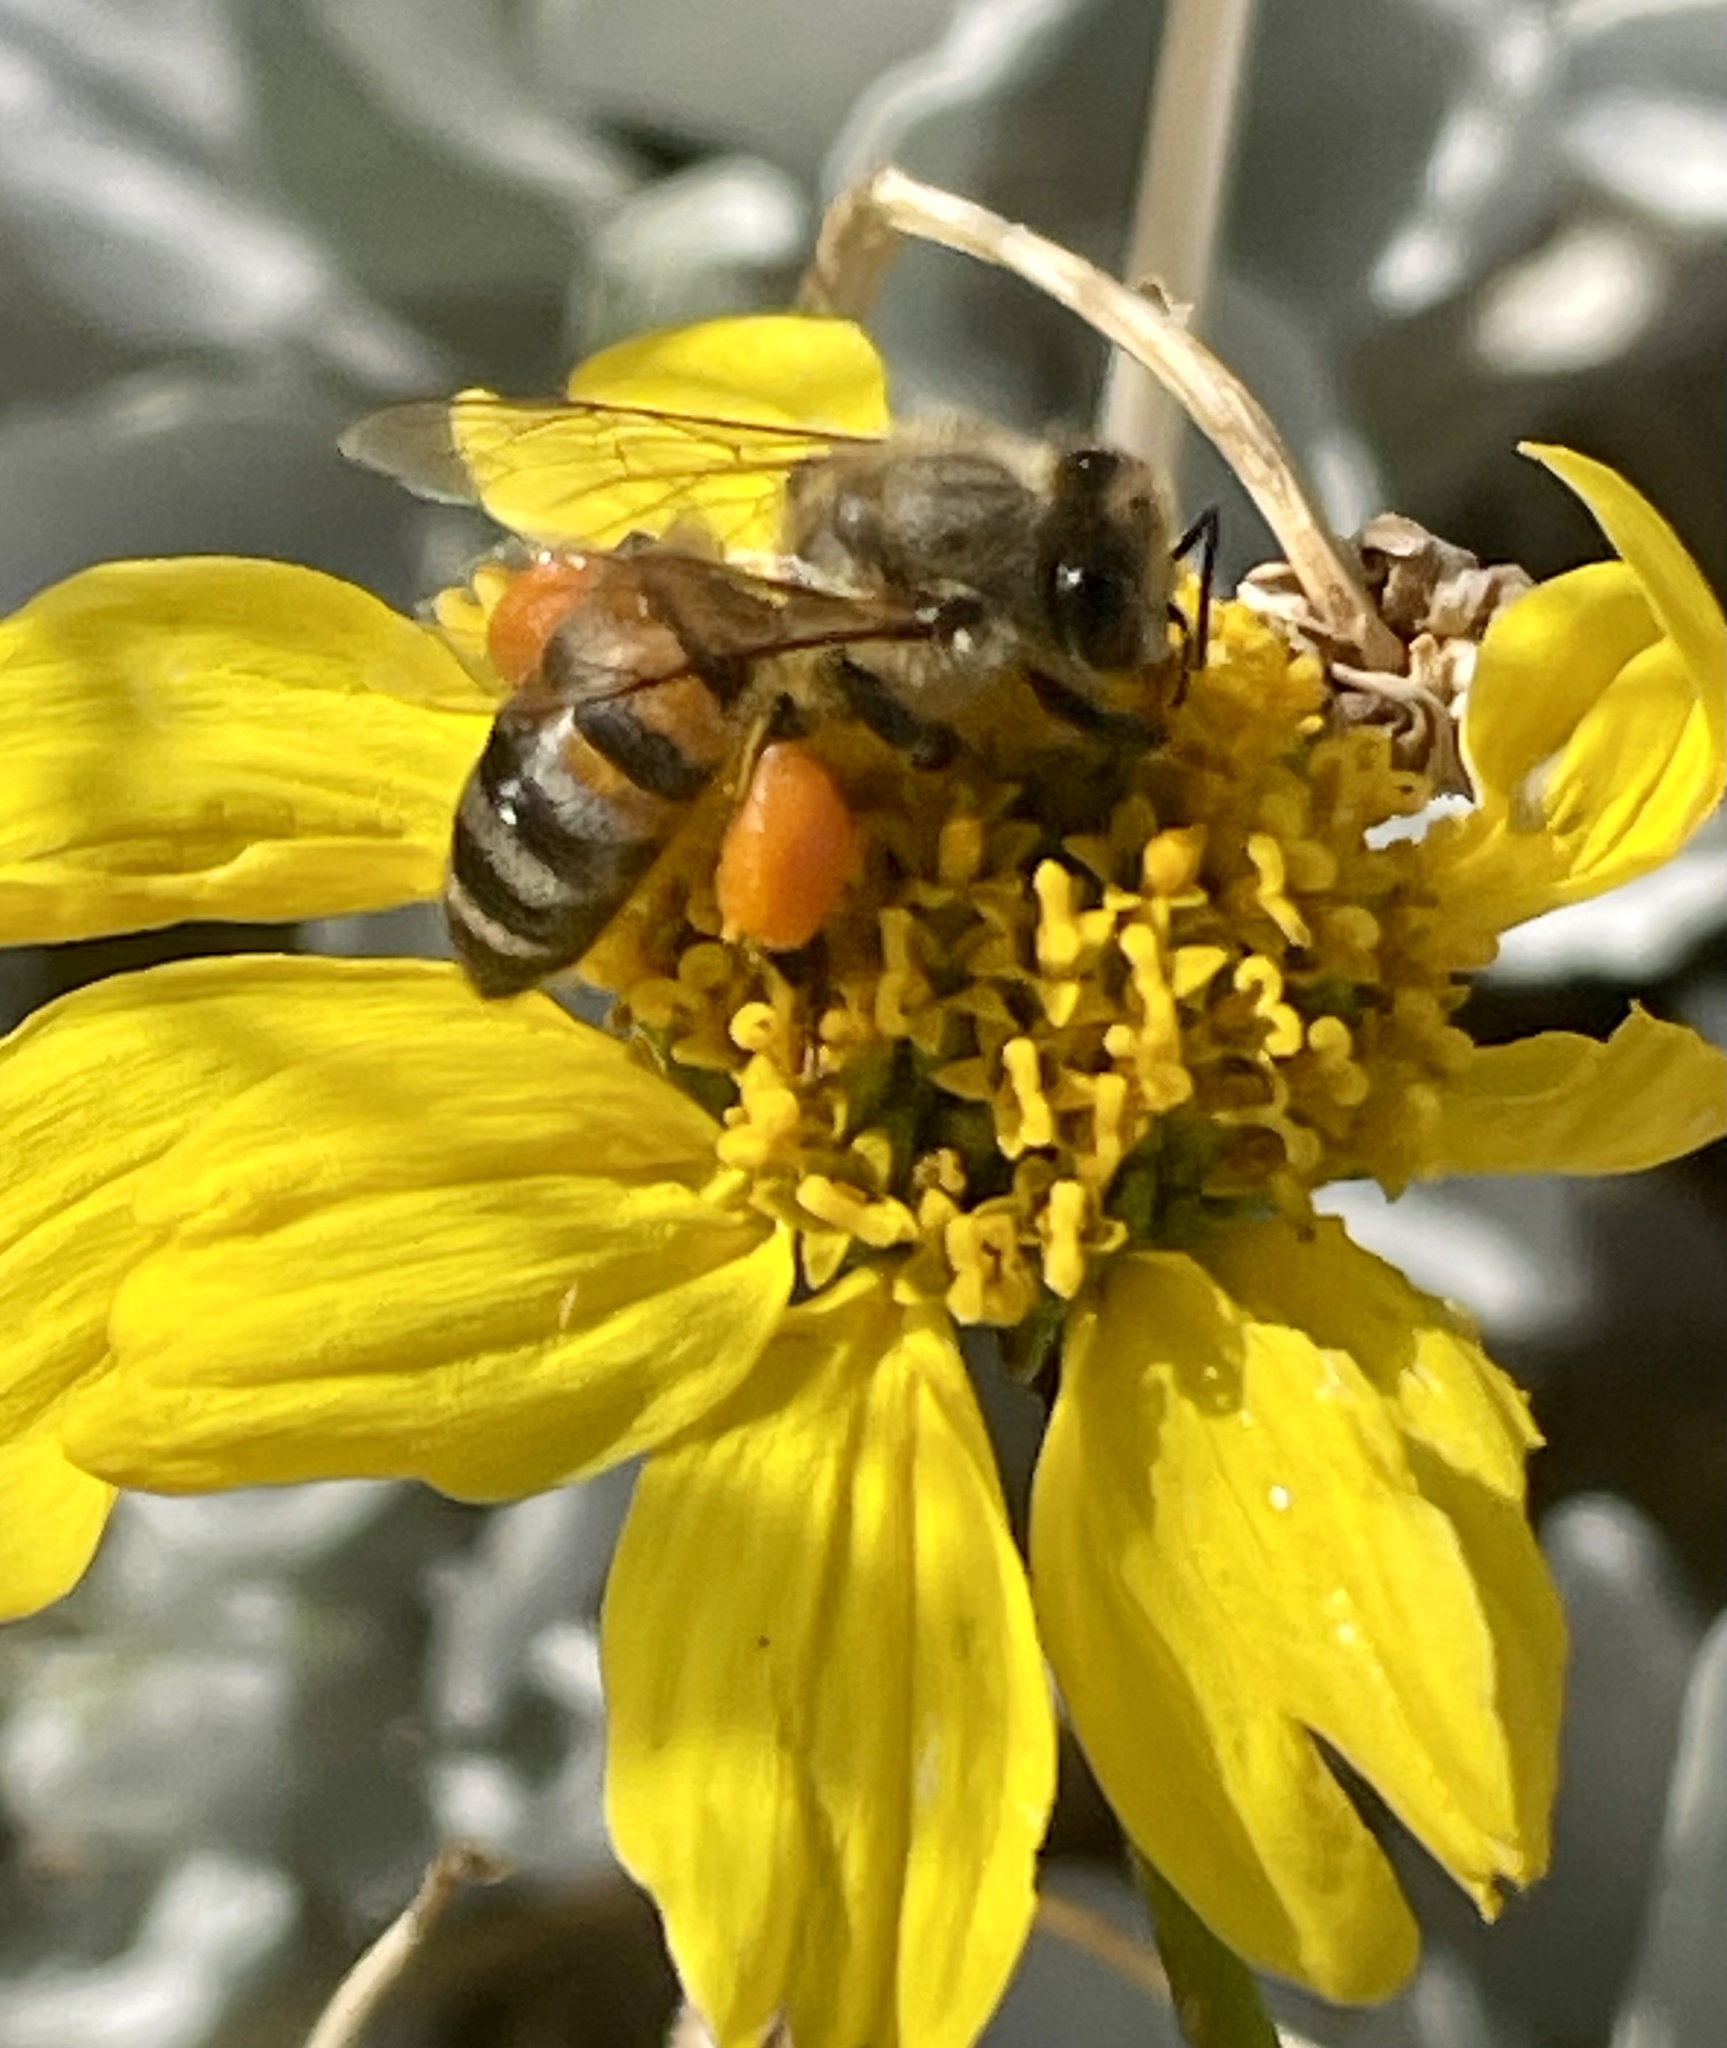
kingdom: Animalia
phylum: Arthropoda
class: Insecta
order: Hymenoptera
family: Apidae
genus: Apis
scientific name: Apis mellifera
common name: Honey bee
